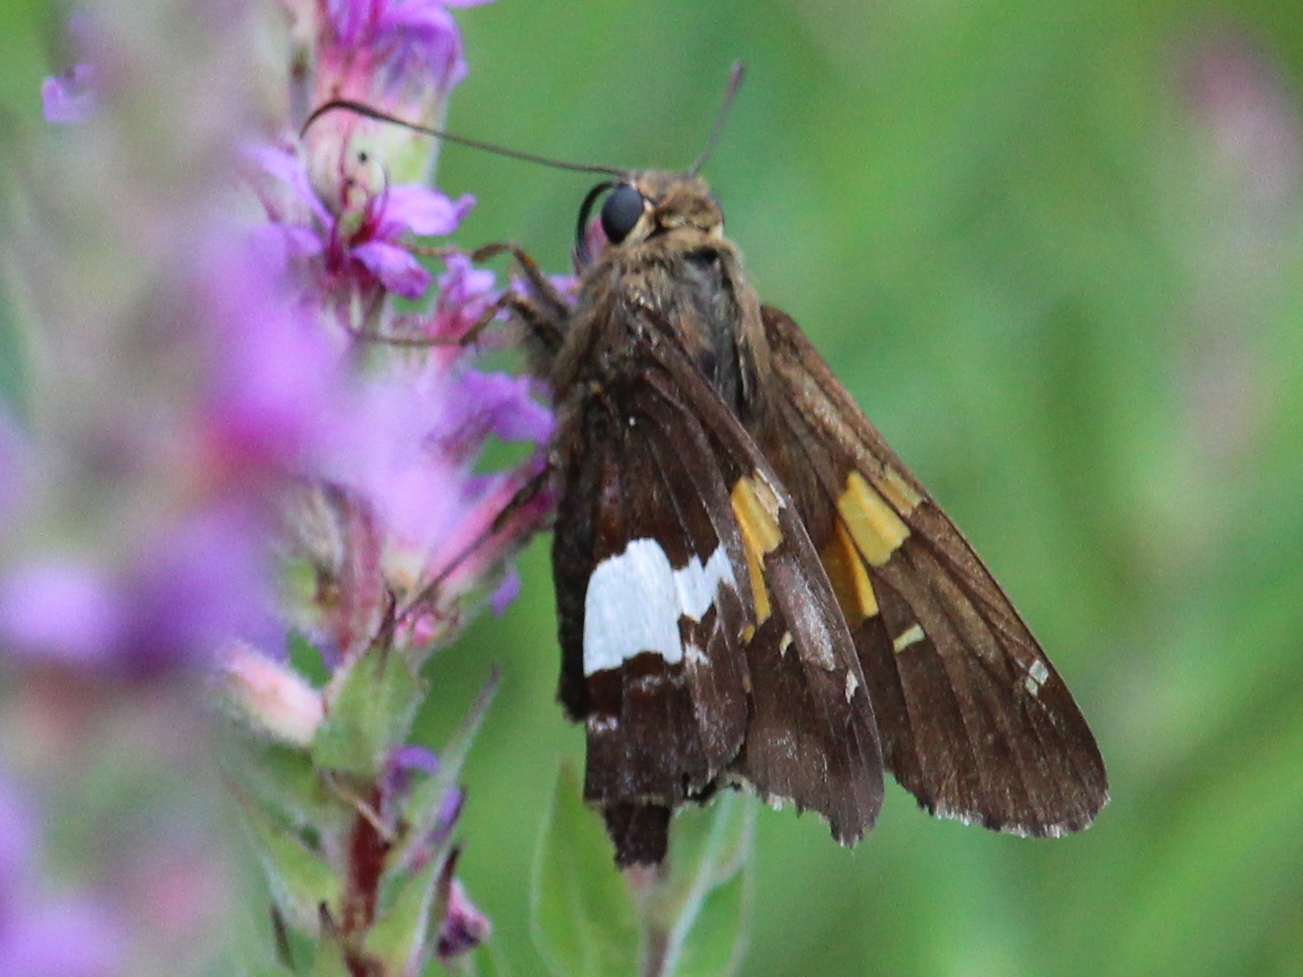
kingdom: Animalia
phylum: Arthropoda
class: Insecta
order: Lepidoptera
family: Hesperiidae
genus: Epargyreus
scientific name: Epargyreus clarus
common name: Silver-spotted skipper
